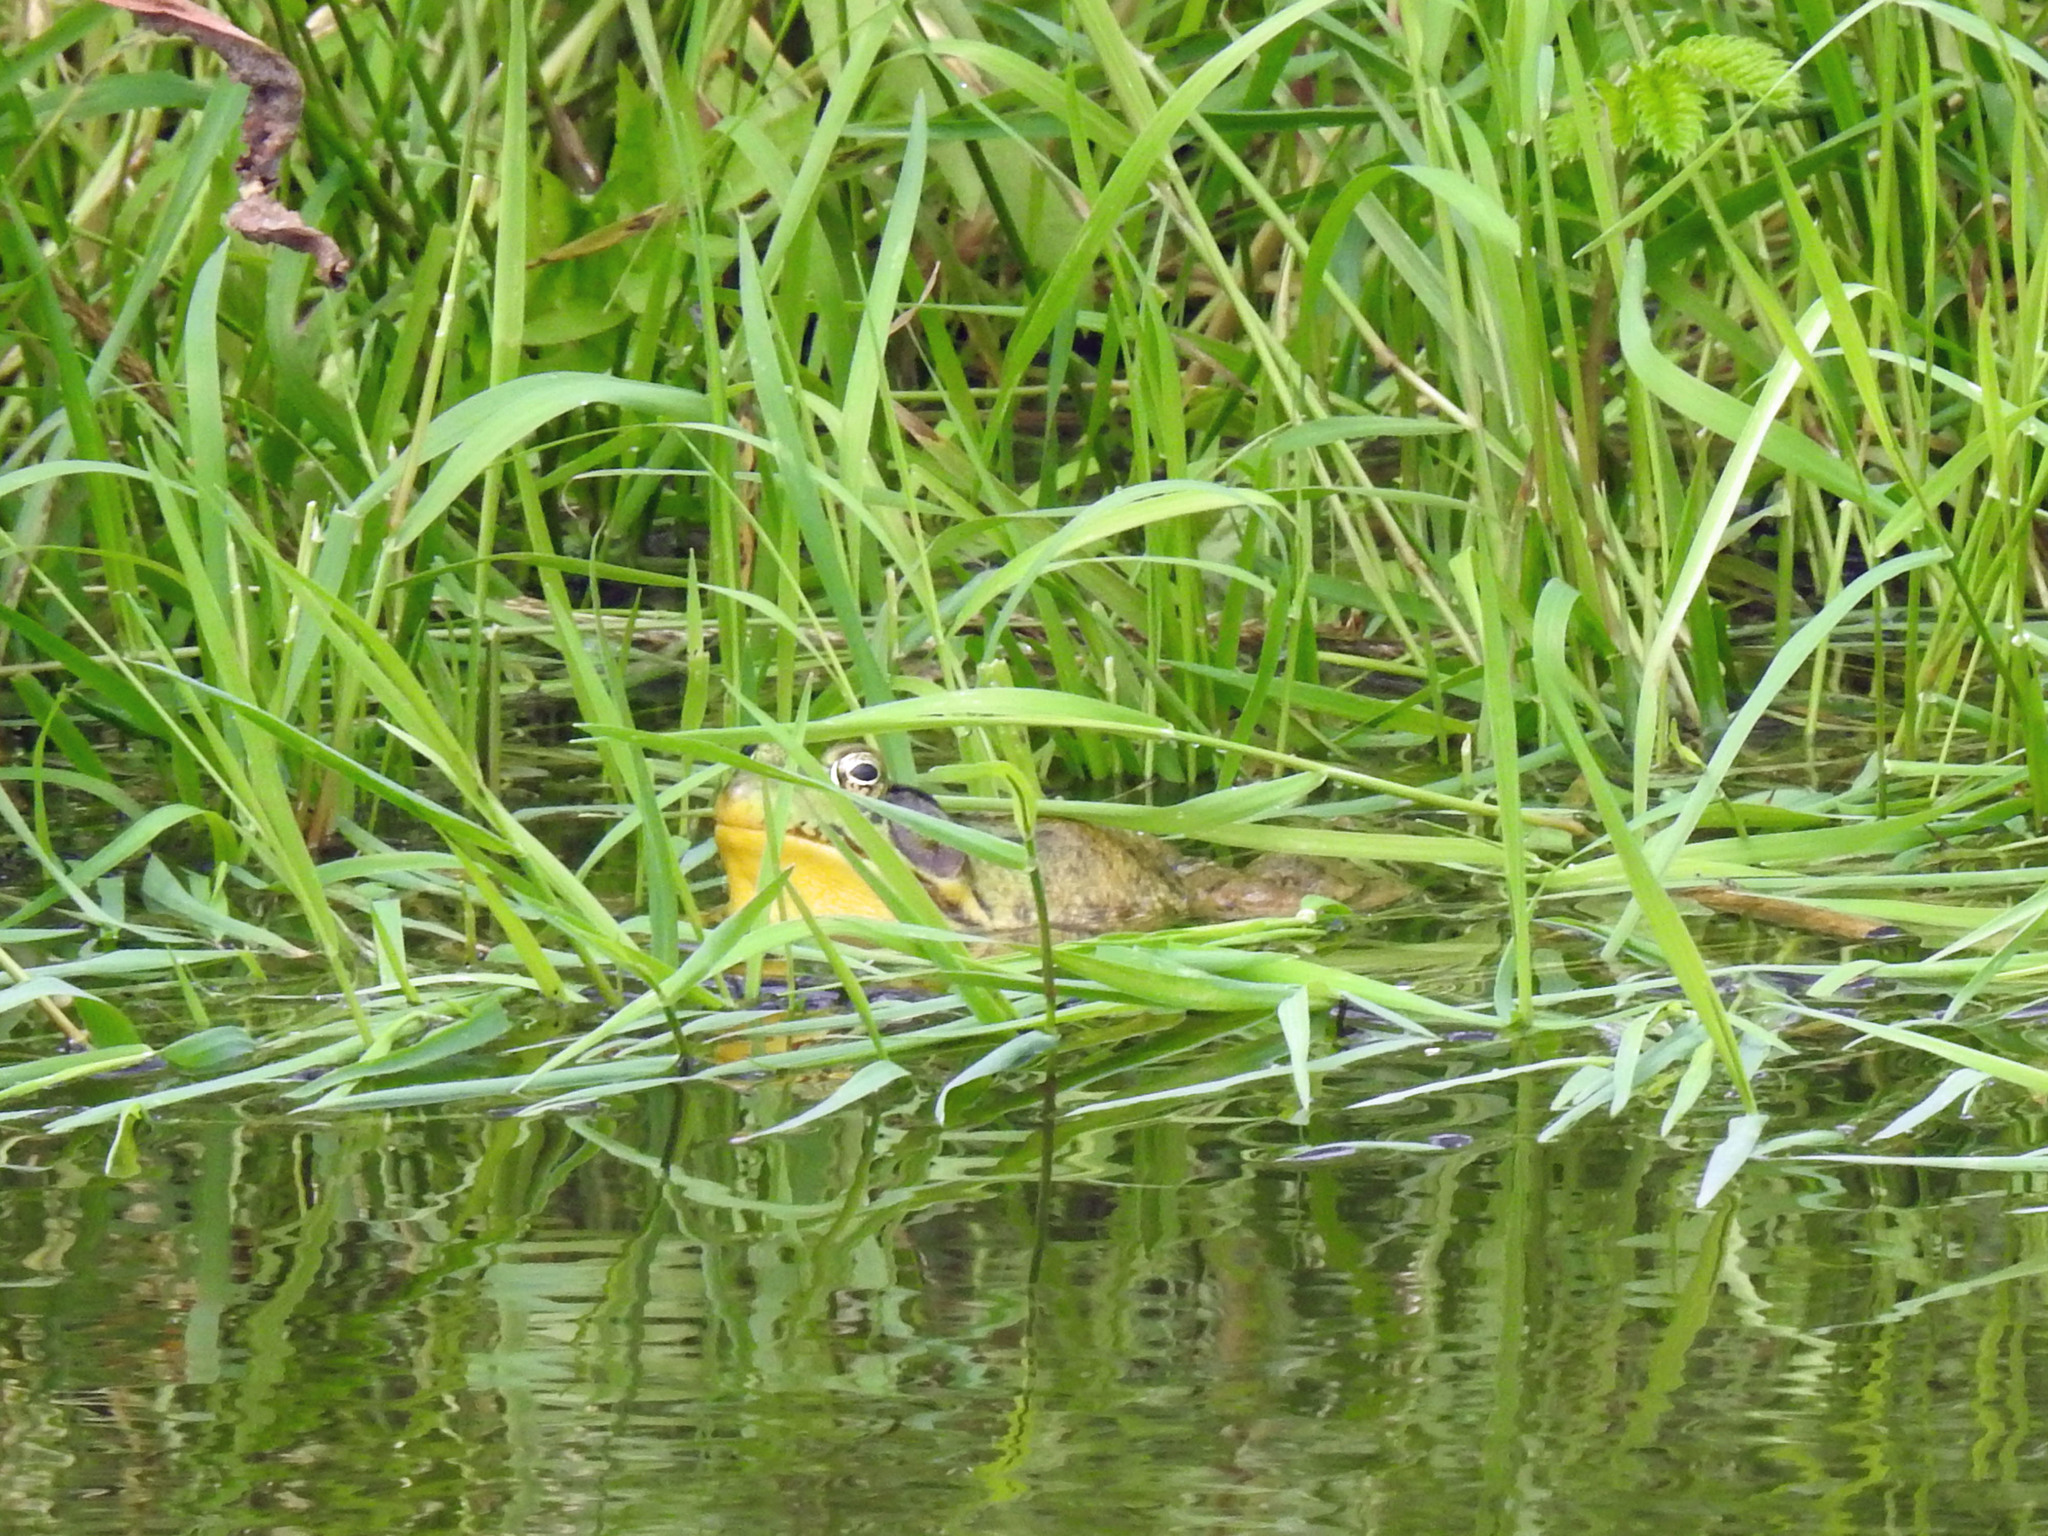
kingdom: Animalia
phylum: Chordata
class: Amphibia
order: Anura
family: Ranidae
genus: Lithobates
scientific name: Lithobates clamitans
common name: Green frog
